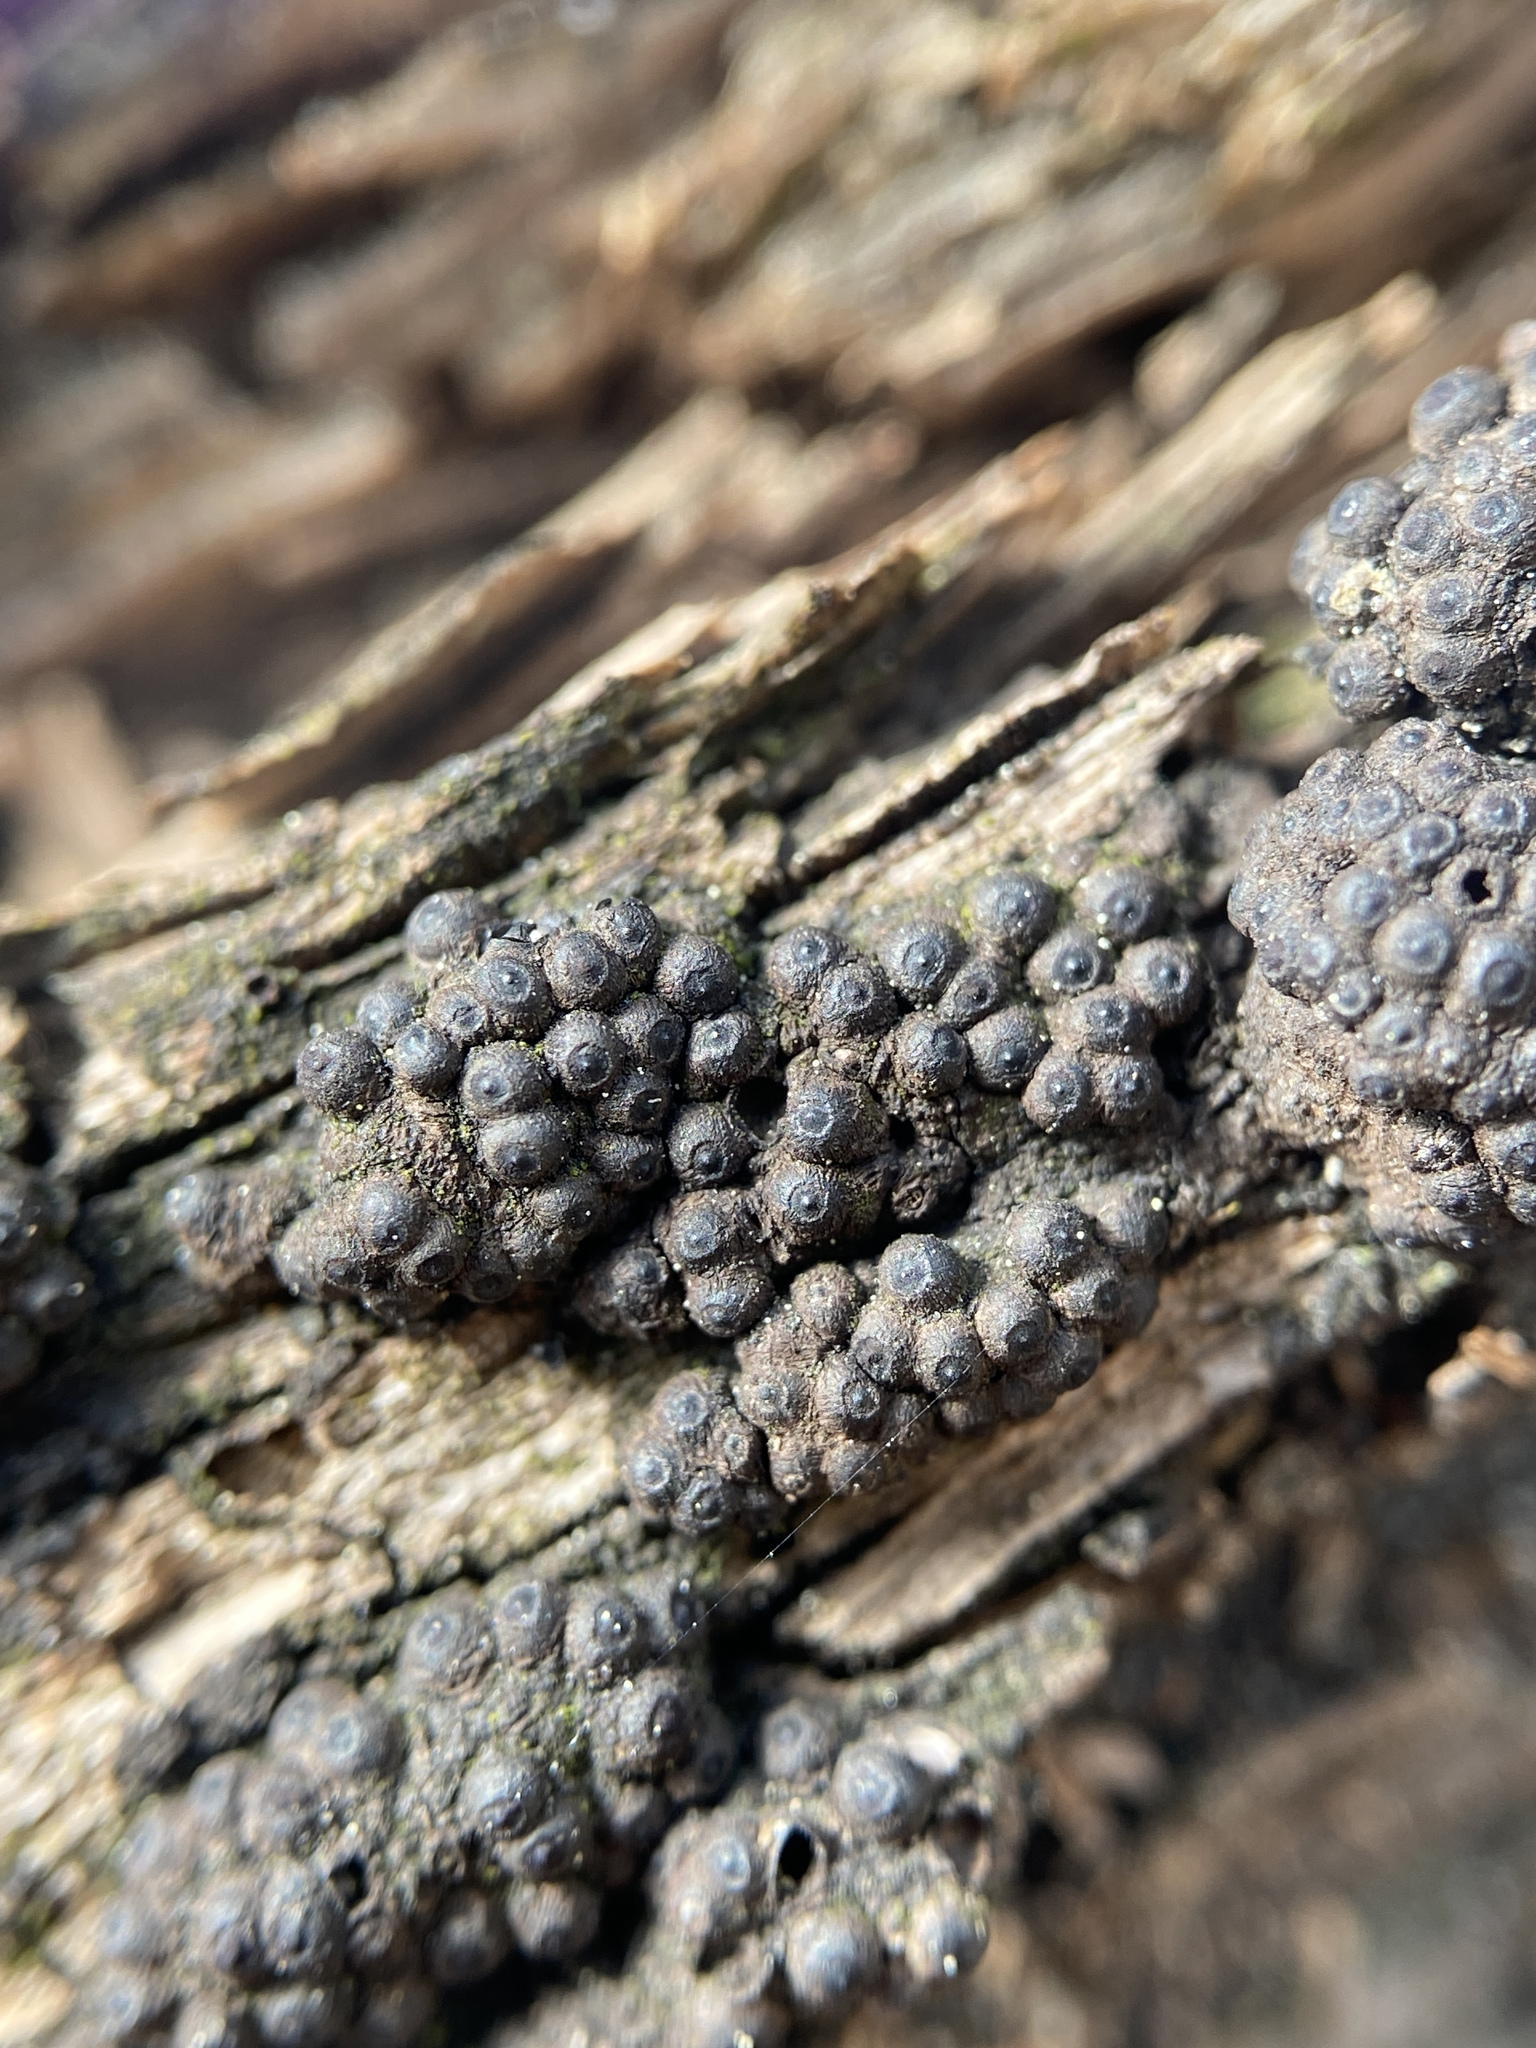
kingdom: Fungi
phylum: Ascomycota
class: Sordariomycetes
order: Xylariales
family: Hypoxylaceae
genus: Annulohypoxylon
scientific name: Annulohypoxylon truncatum
